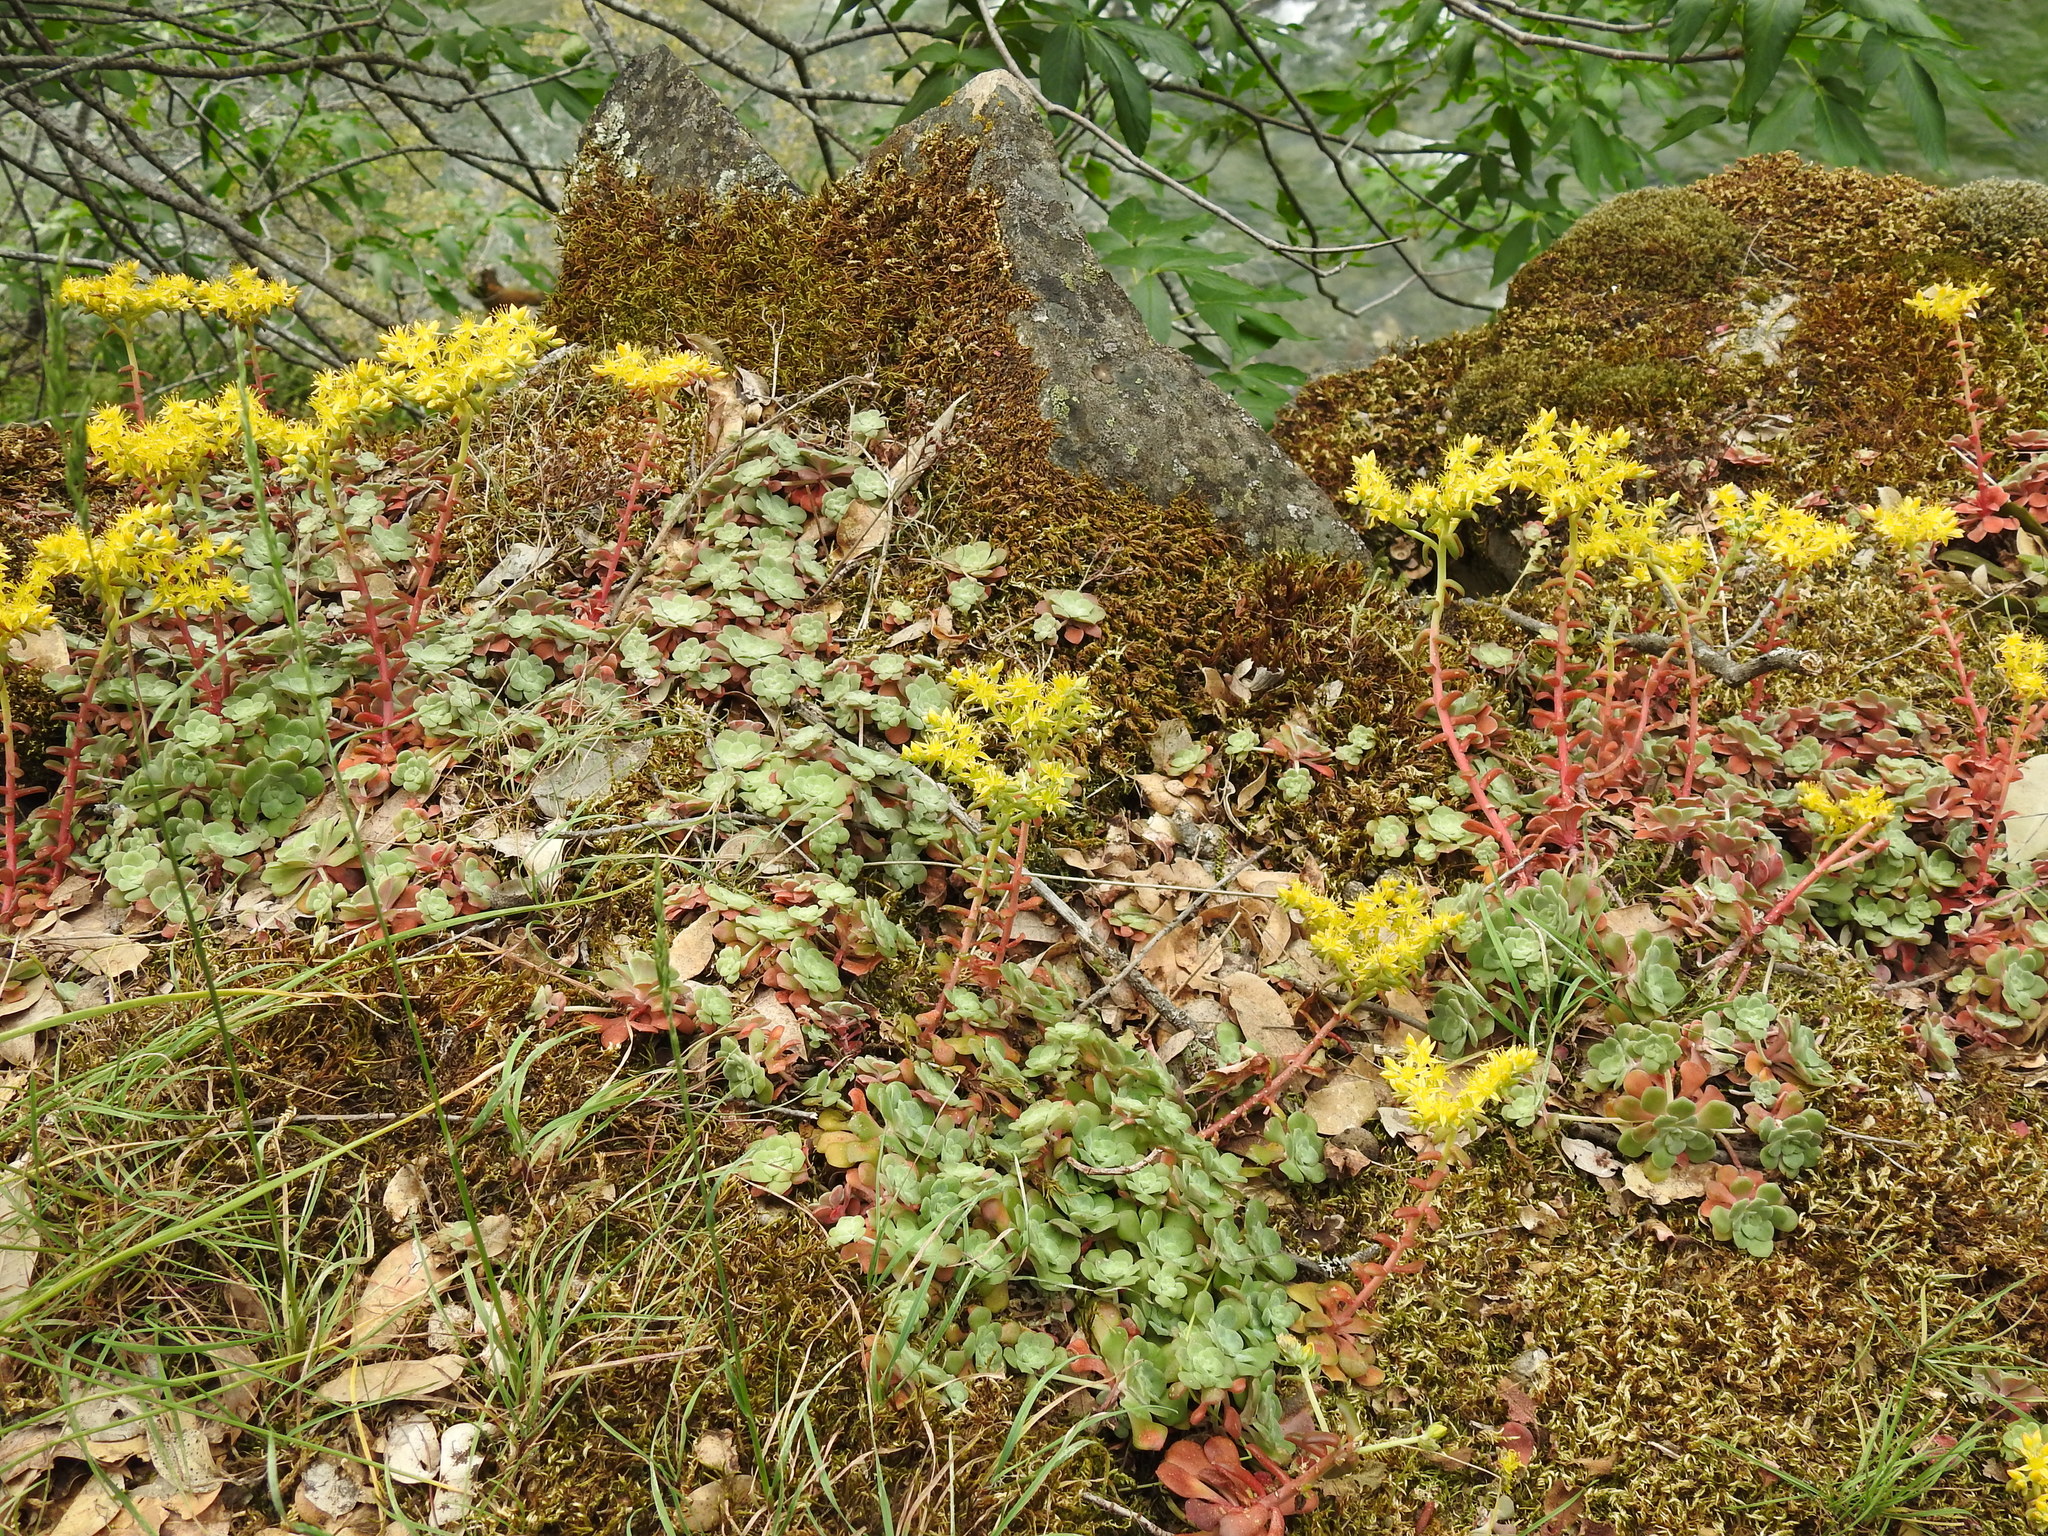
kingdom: Plantae
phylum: Tracheophyta
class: Magnoliopsida
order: Saxifragales
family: Crassulaceae
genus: Sedum
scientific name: Sedum spathulifolium
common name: Colorado stonecrop
